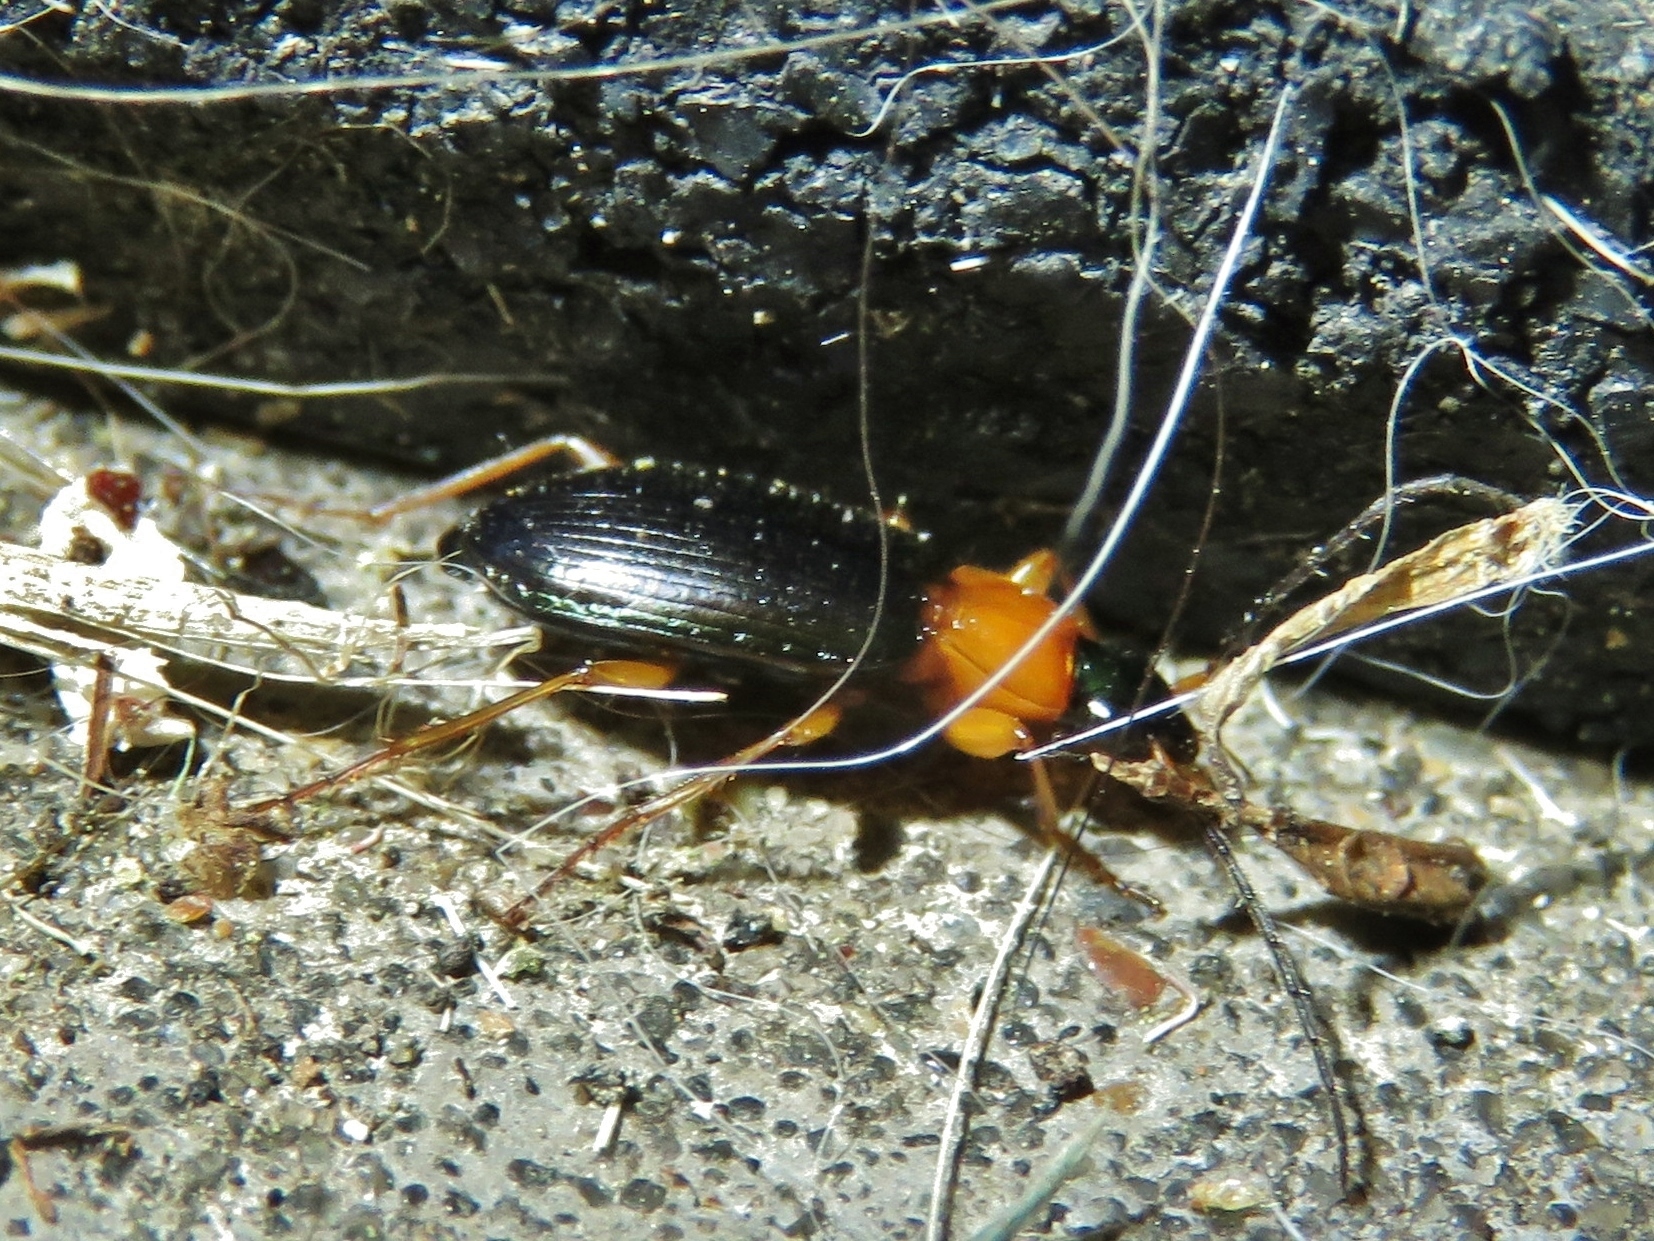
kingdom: Animalia
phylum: Arthropoda
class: Insecta
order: Coleoptera
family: Carabidae
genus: Agonum
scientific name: Agonum decorum
